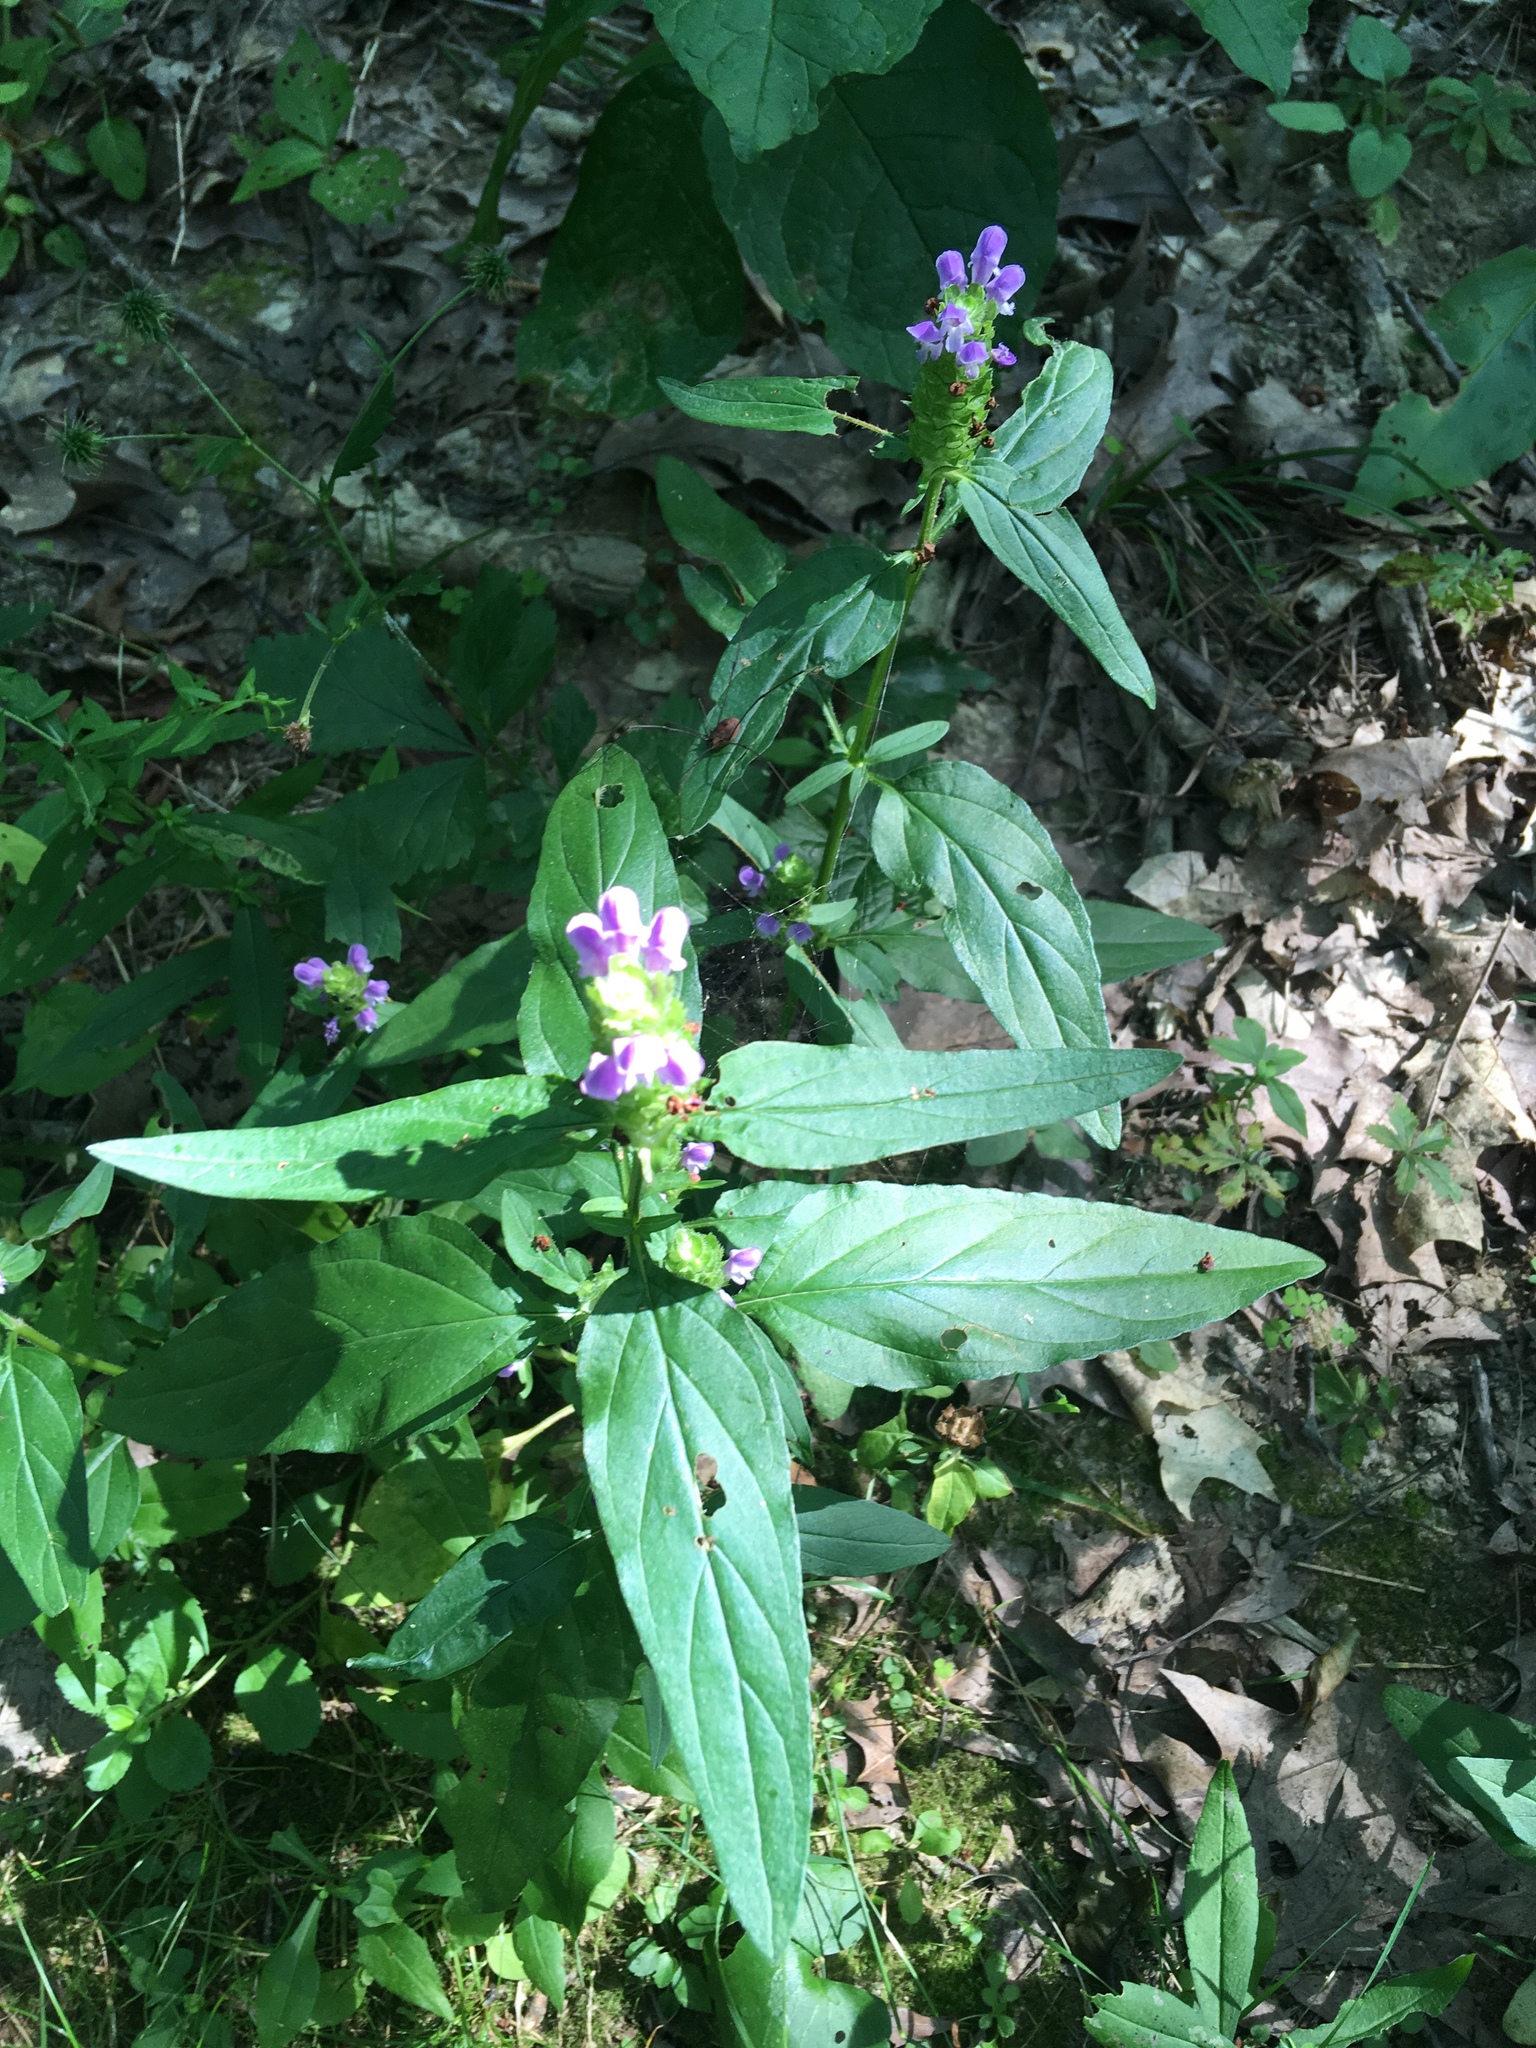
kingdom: Plantae
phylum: Tracheophyta
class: Magnoliopsida
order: Lamiales
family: Lamiaceae
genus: Prunella
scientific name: Prunella vulgaris
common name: Heal-all
